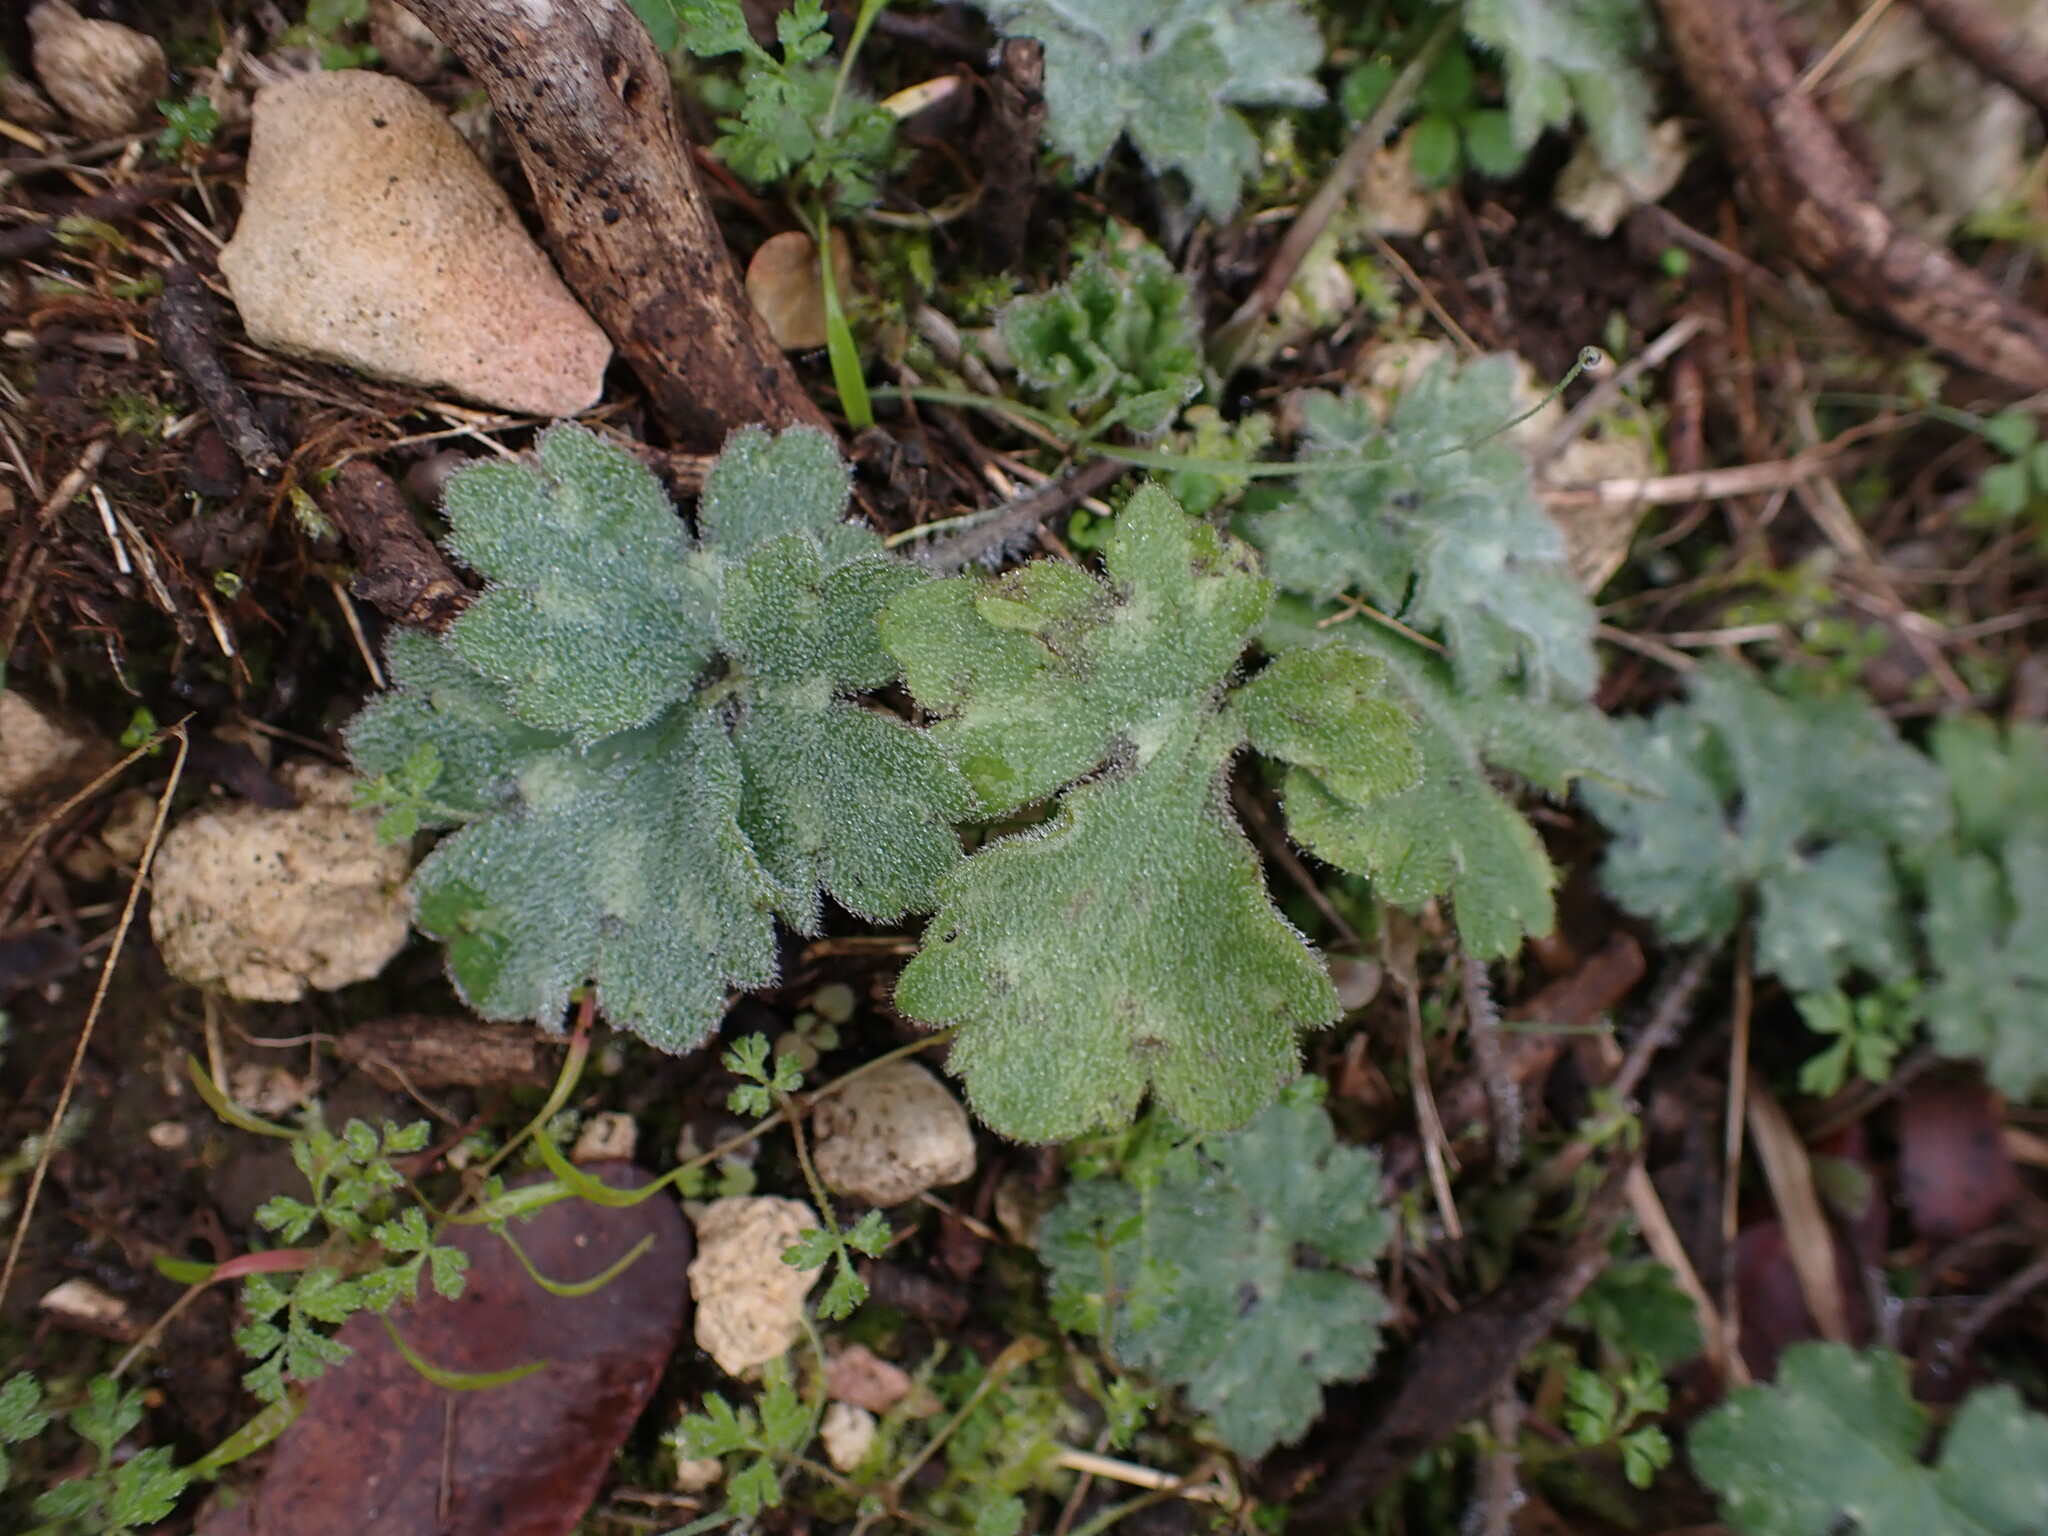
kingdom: Plantae
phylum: Tracheophyta
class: Magnoliopsida
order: Ranunculales
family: Ranunculaceae
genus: Ranunculus
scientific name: Ranunculus bulbosus
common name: Bulbous buttercup
